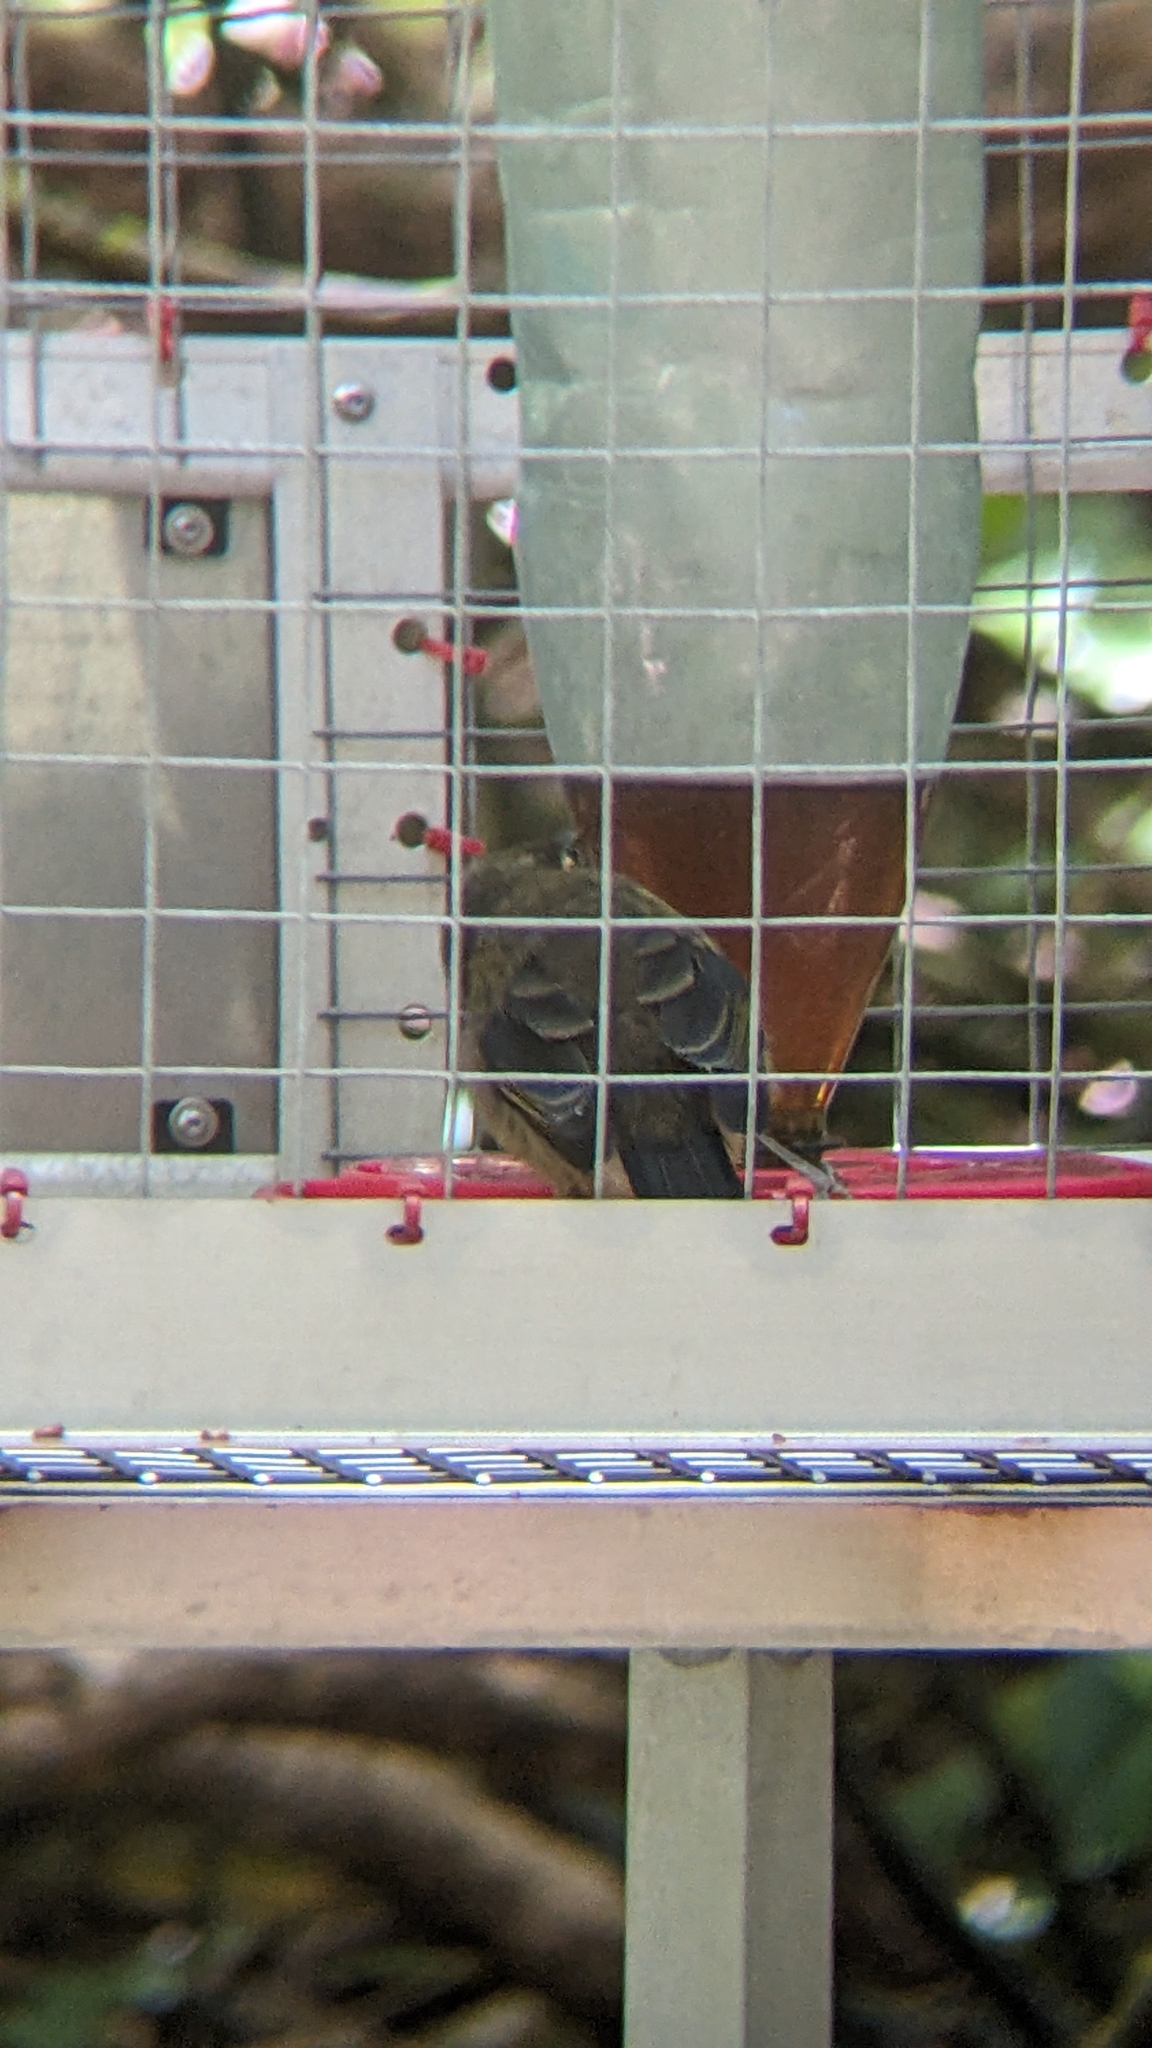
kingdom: Animalia
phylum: Chordata
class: Aves
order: Passeriformes
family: Meliphagidae
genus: Anthornis
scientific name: Anthornis melanura
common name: New zealand bellbird
